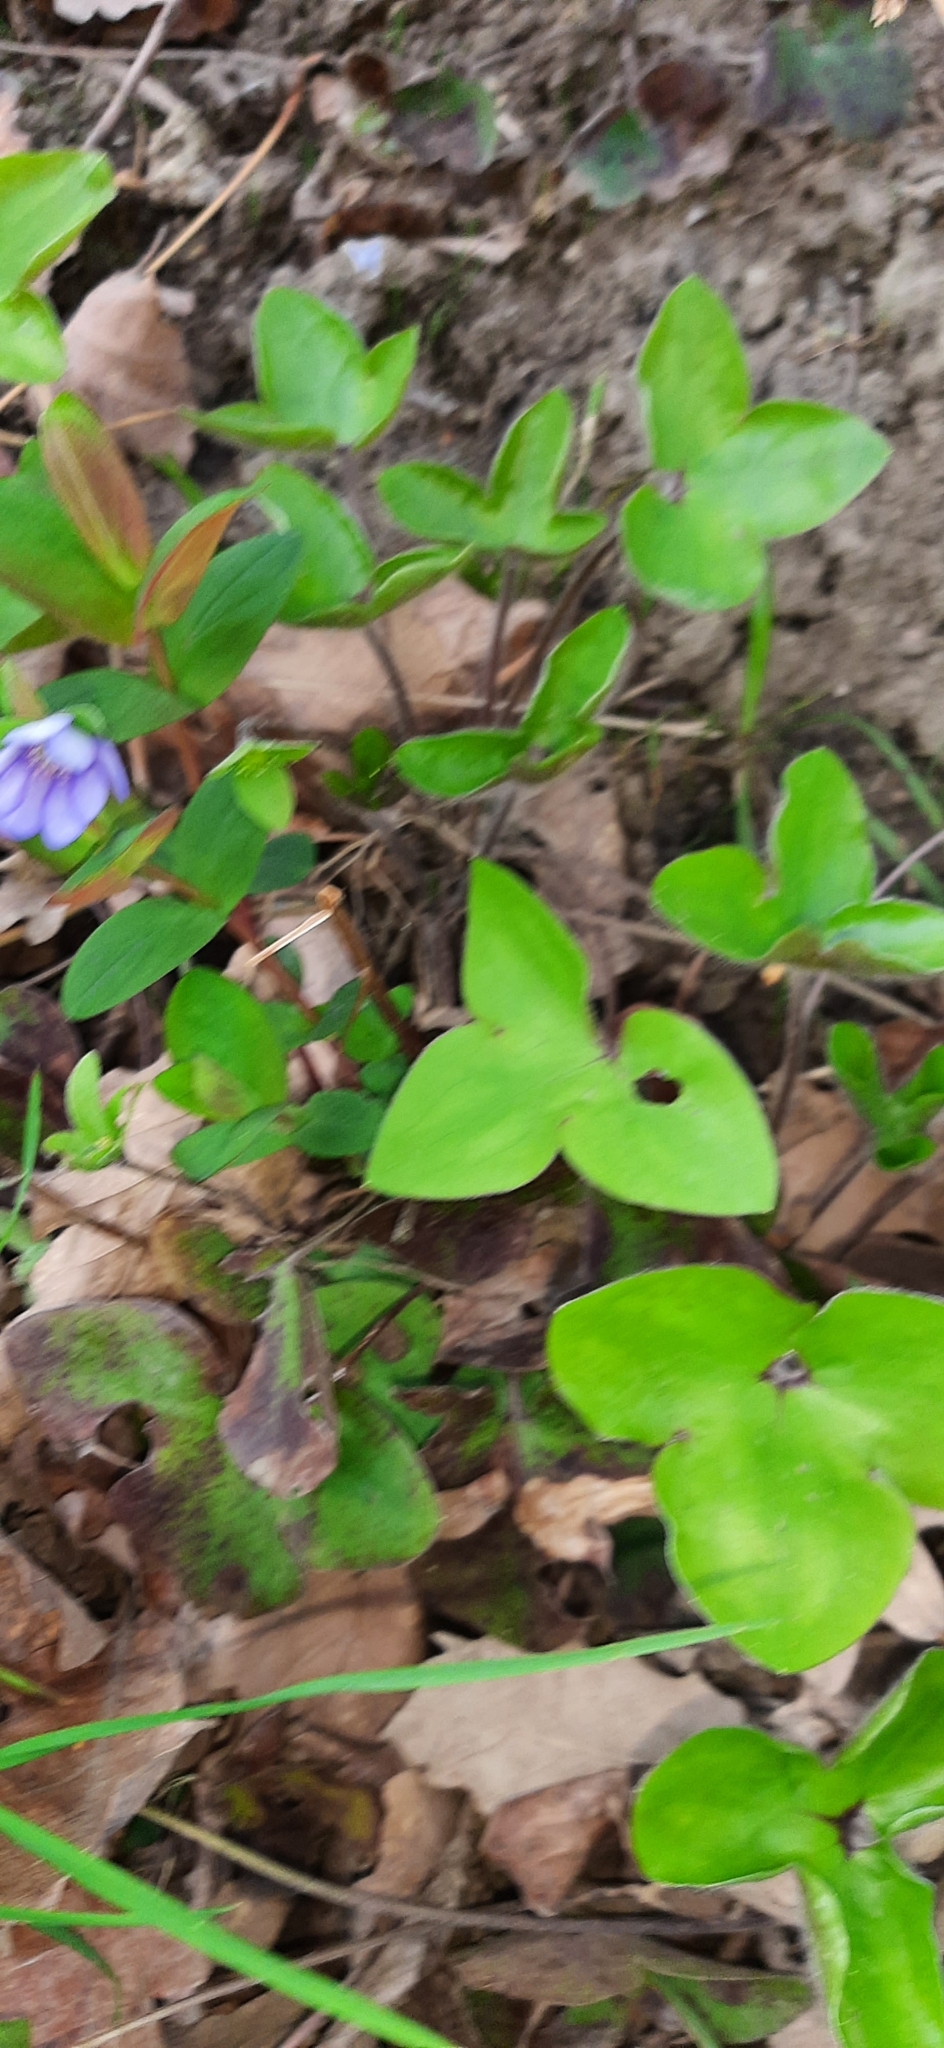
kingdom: Plantae
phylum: Tracheophyta
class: Magnoliopsida
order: Ranunculales
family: Ranunculaceae
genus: Hepatica
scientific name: Hepatica nobilis
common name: Liverleaf
